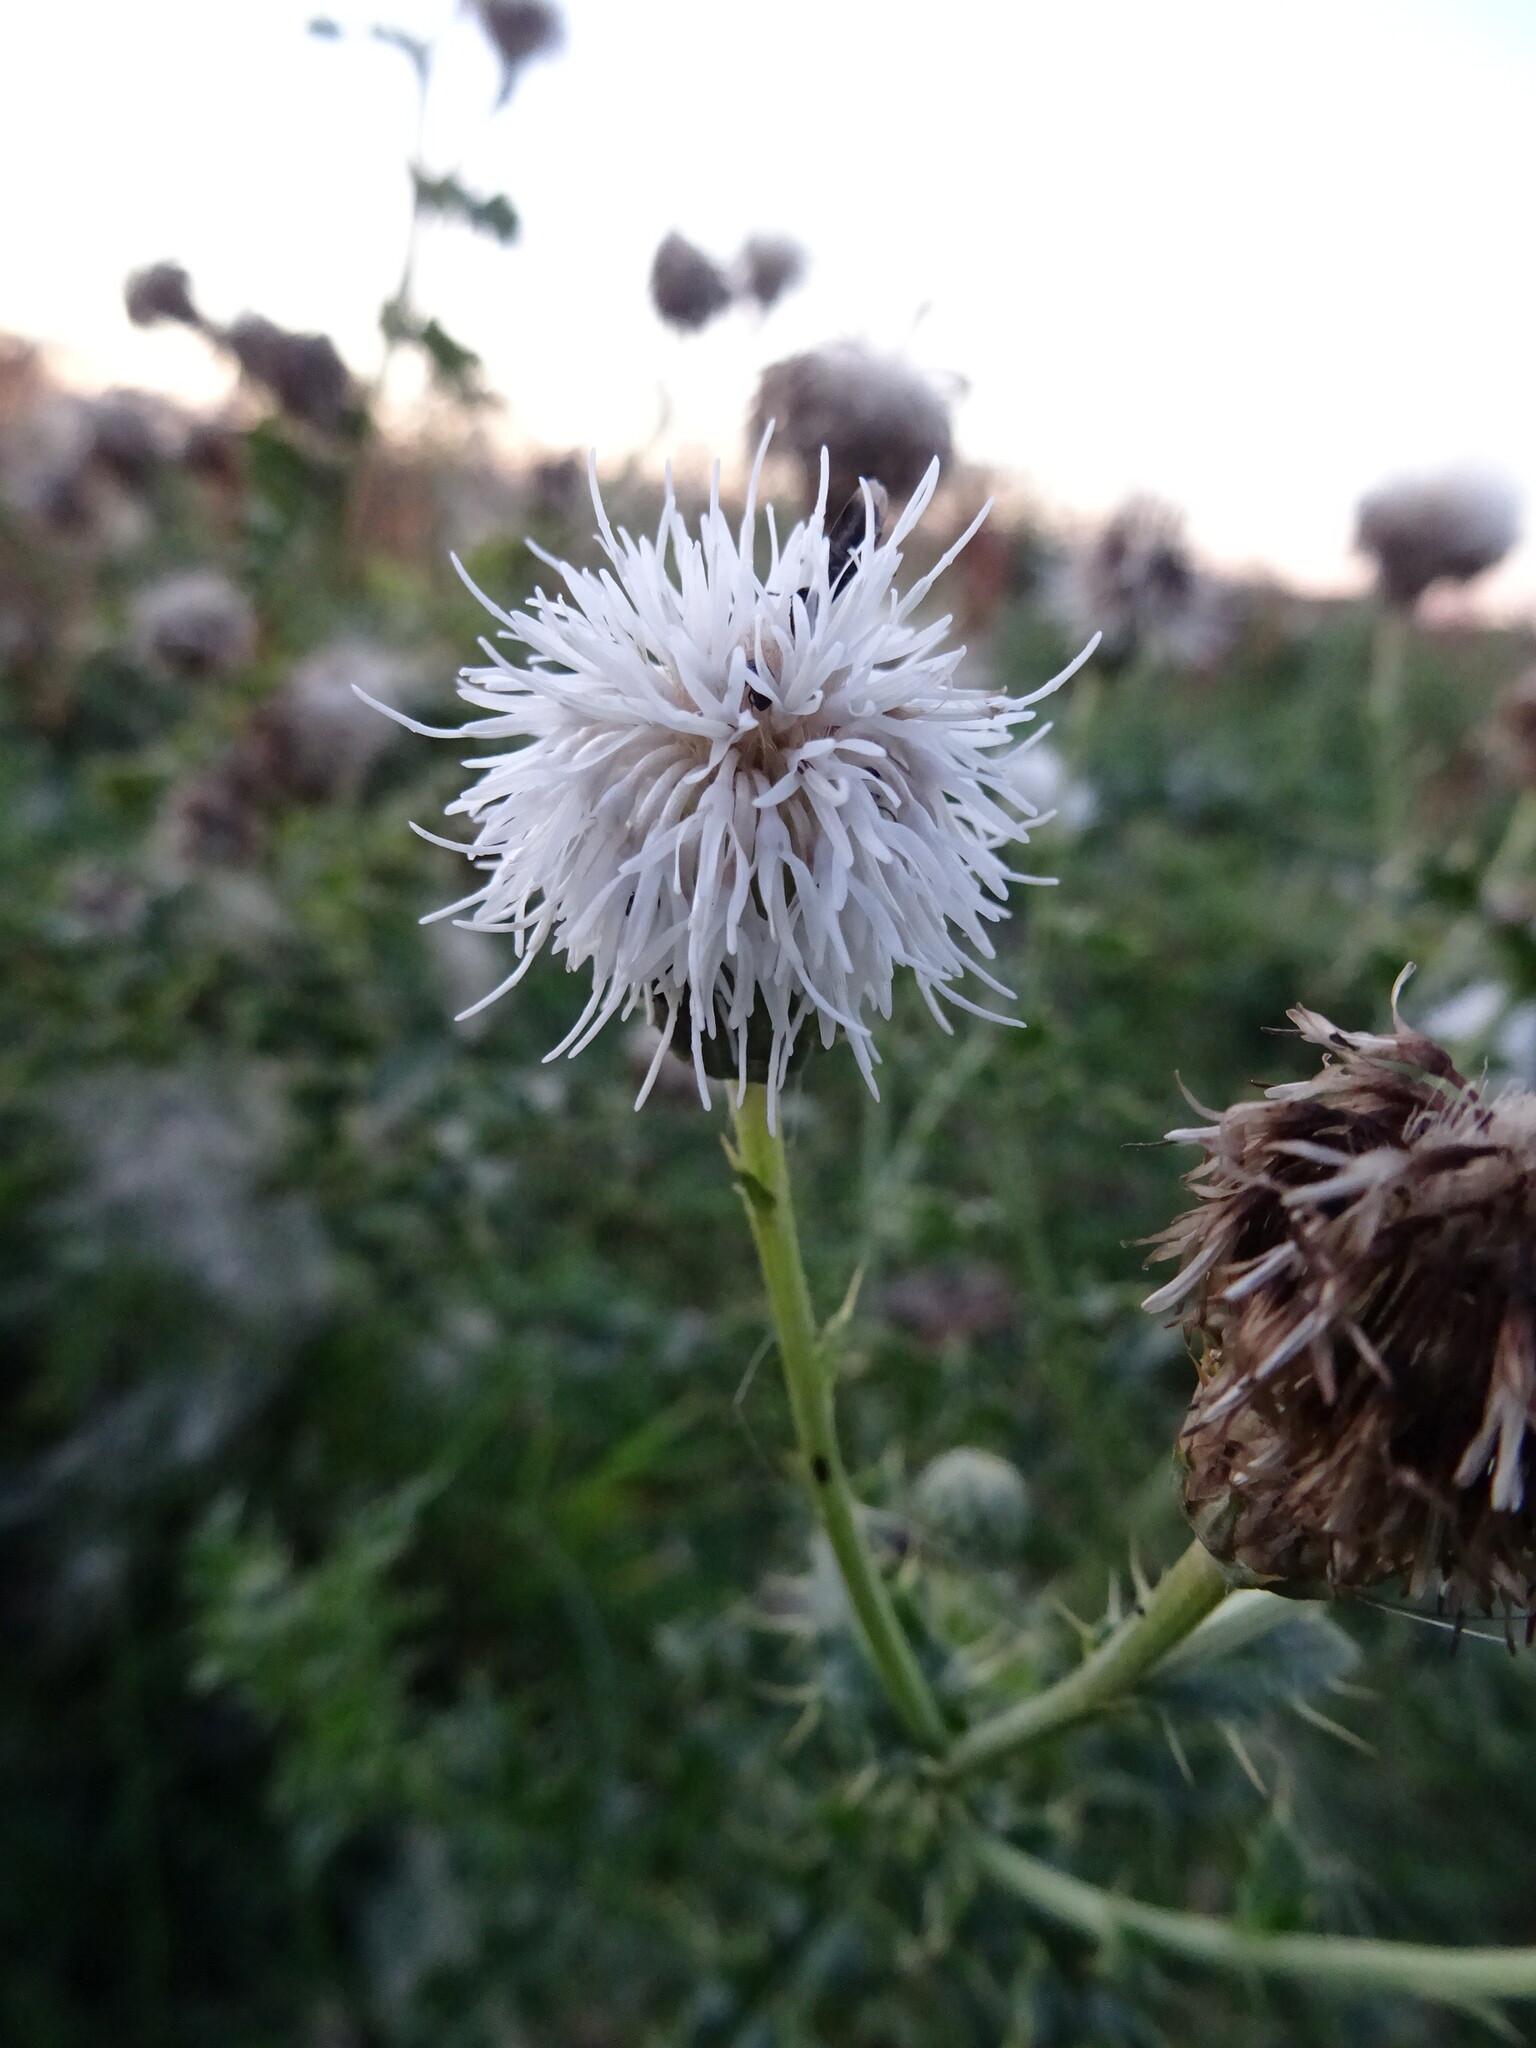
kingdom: Plantae
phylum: Tracheophyta
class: Magnoliopsida
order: Asterales
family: Asteraceae
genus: Cirsium
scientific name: Cirsium arvense
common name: Creeping thistle
